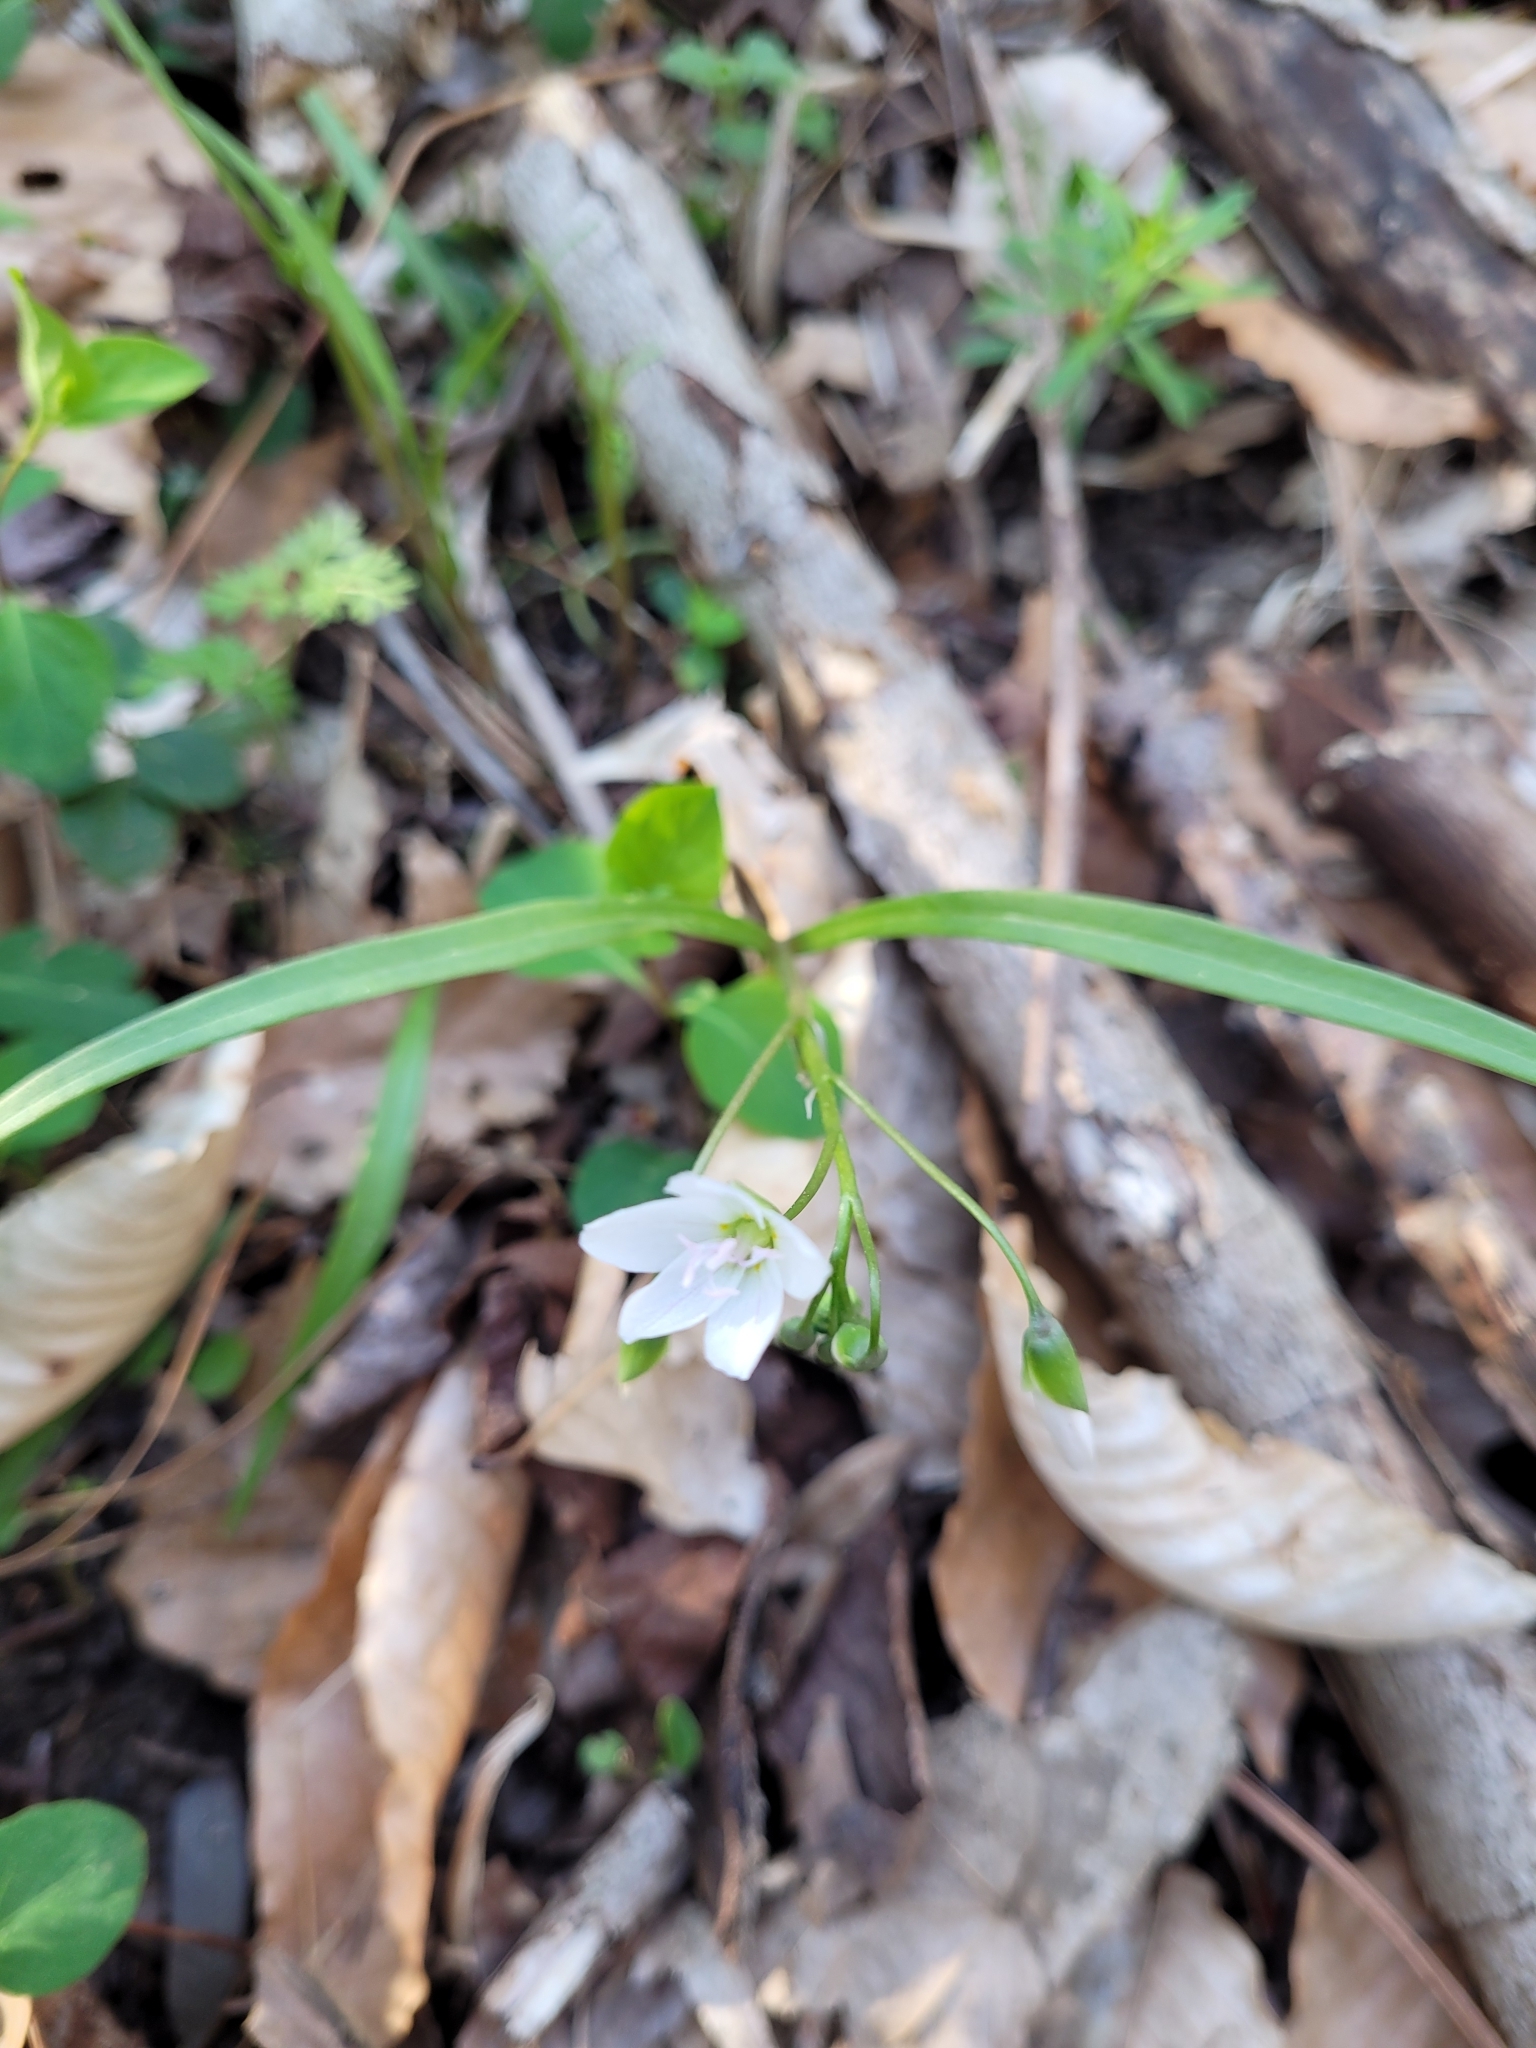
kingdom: Plantae
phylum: Tracheophyta
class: Magnoliopsida
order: Caryophyllales
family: Montiaceae
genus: Claytonia
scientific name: Claytonia virginica
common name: Virginia springbeauty
